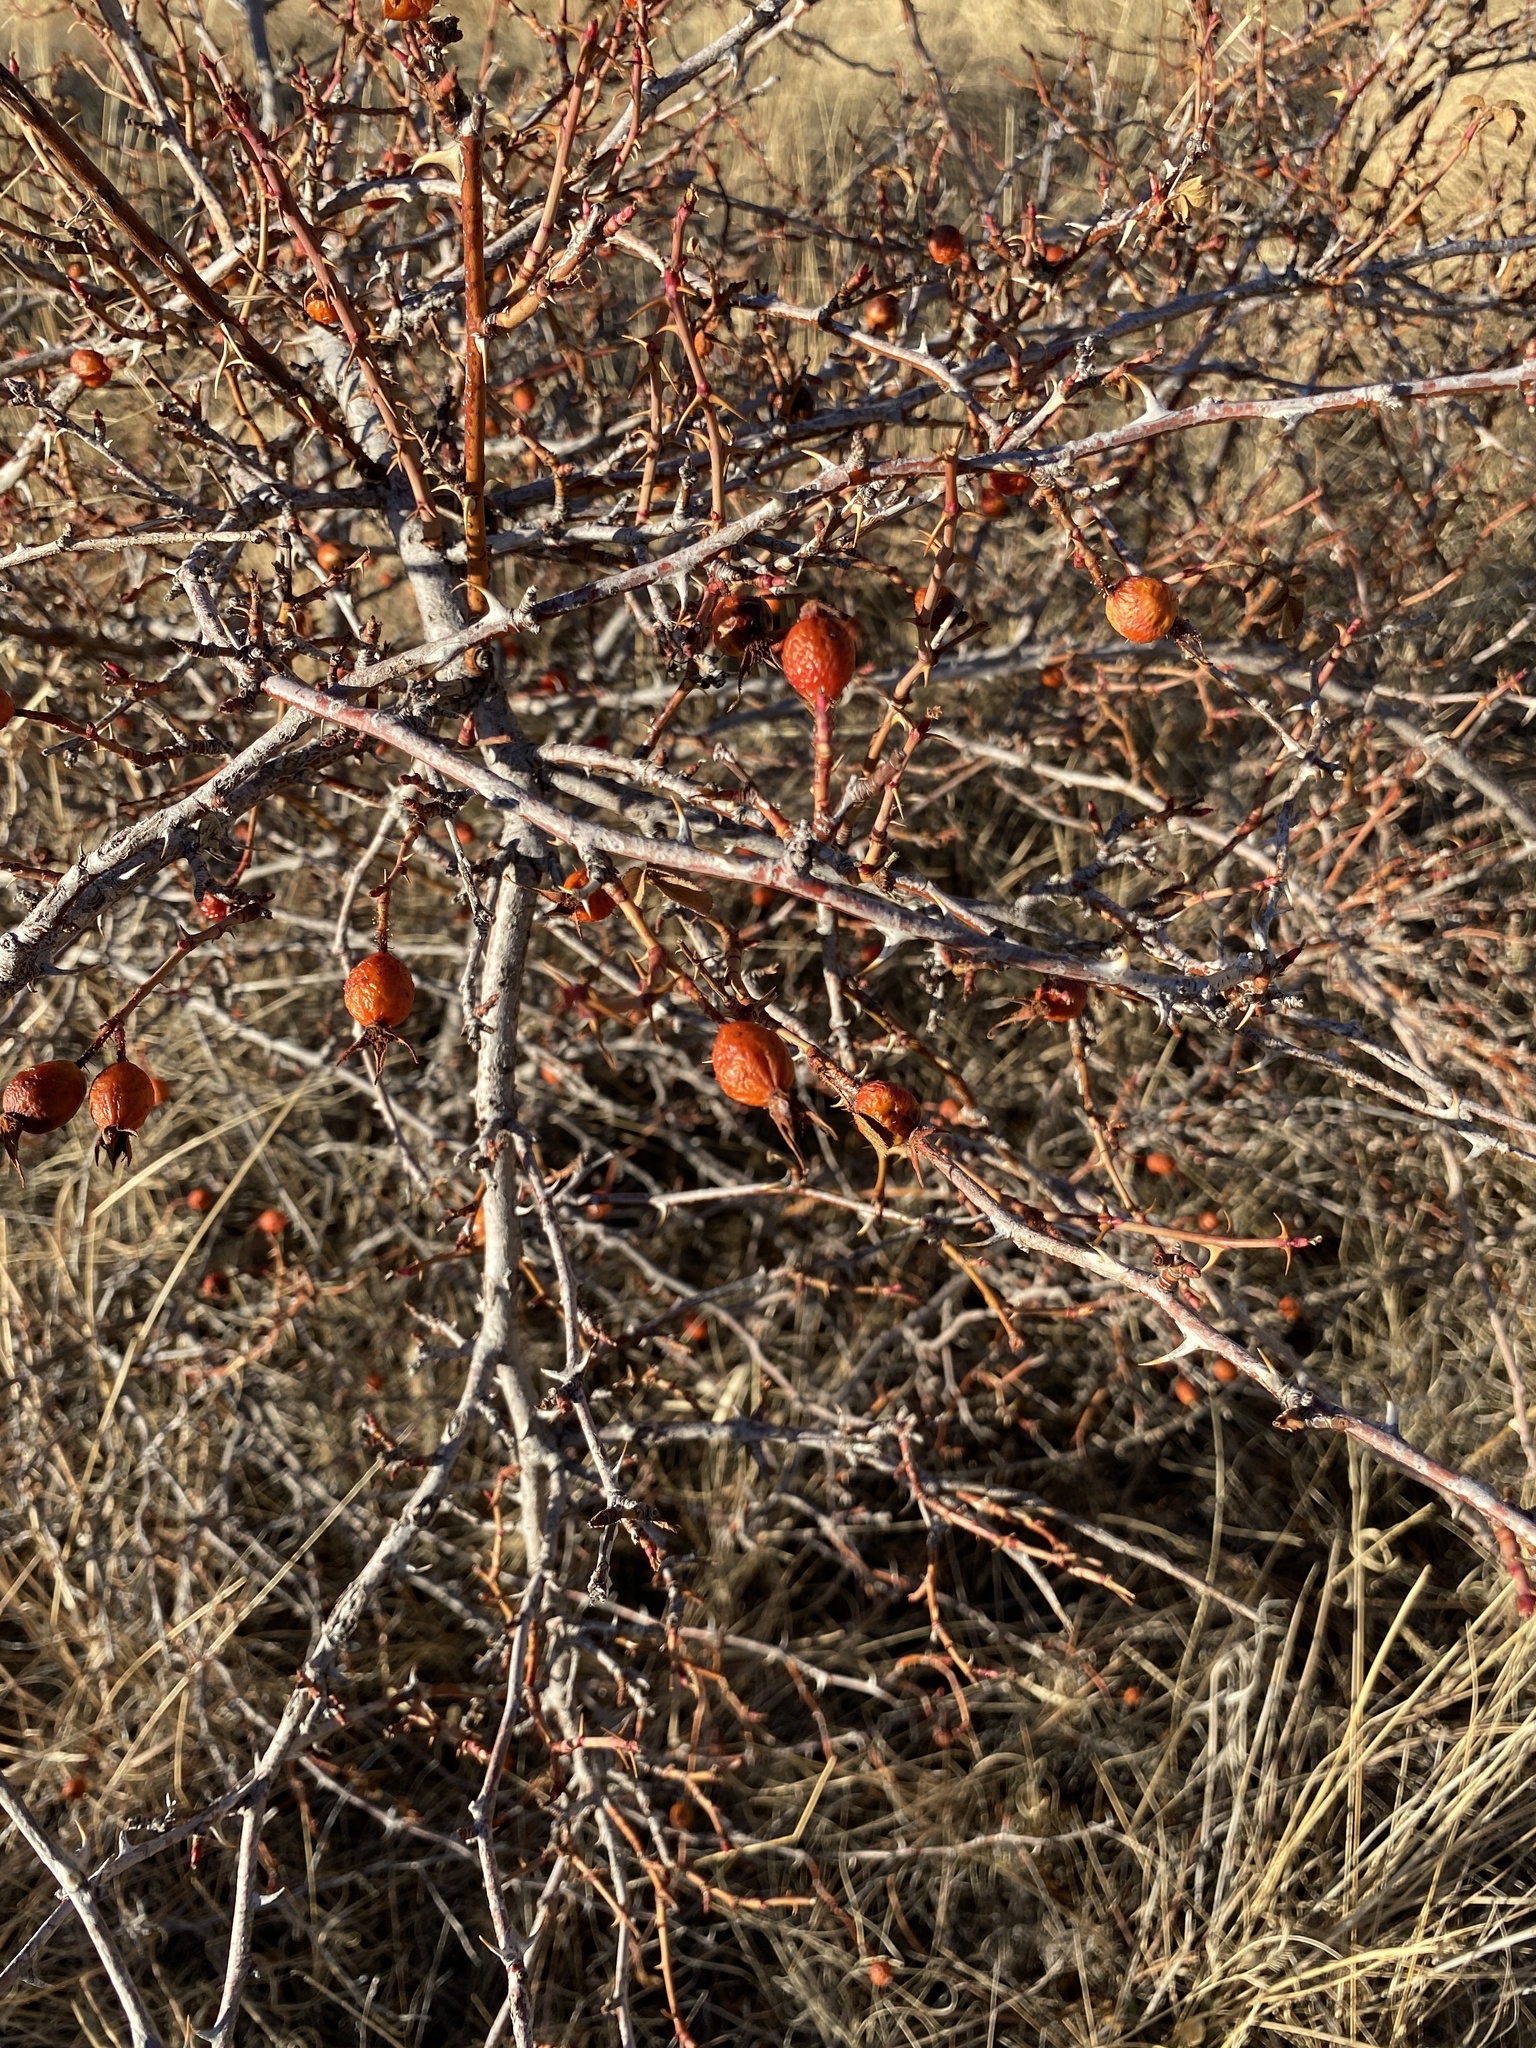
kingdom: Plantae
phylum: Tracheophyta
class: Magnoliopsida
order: Rosales
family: Rosaceae
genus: Rosa
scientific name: Rosa woodsii
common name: Woods's rose
